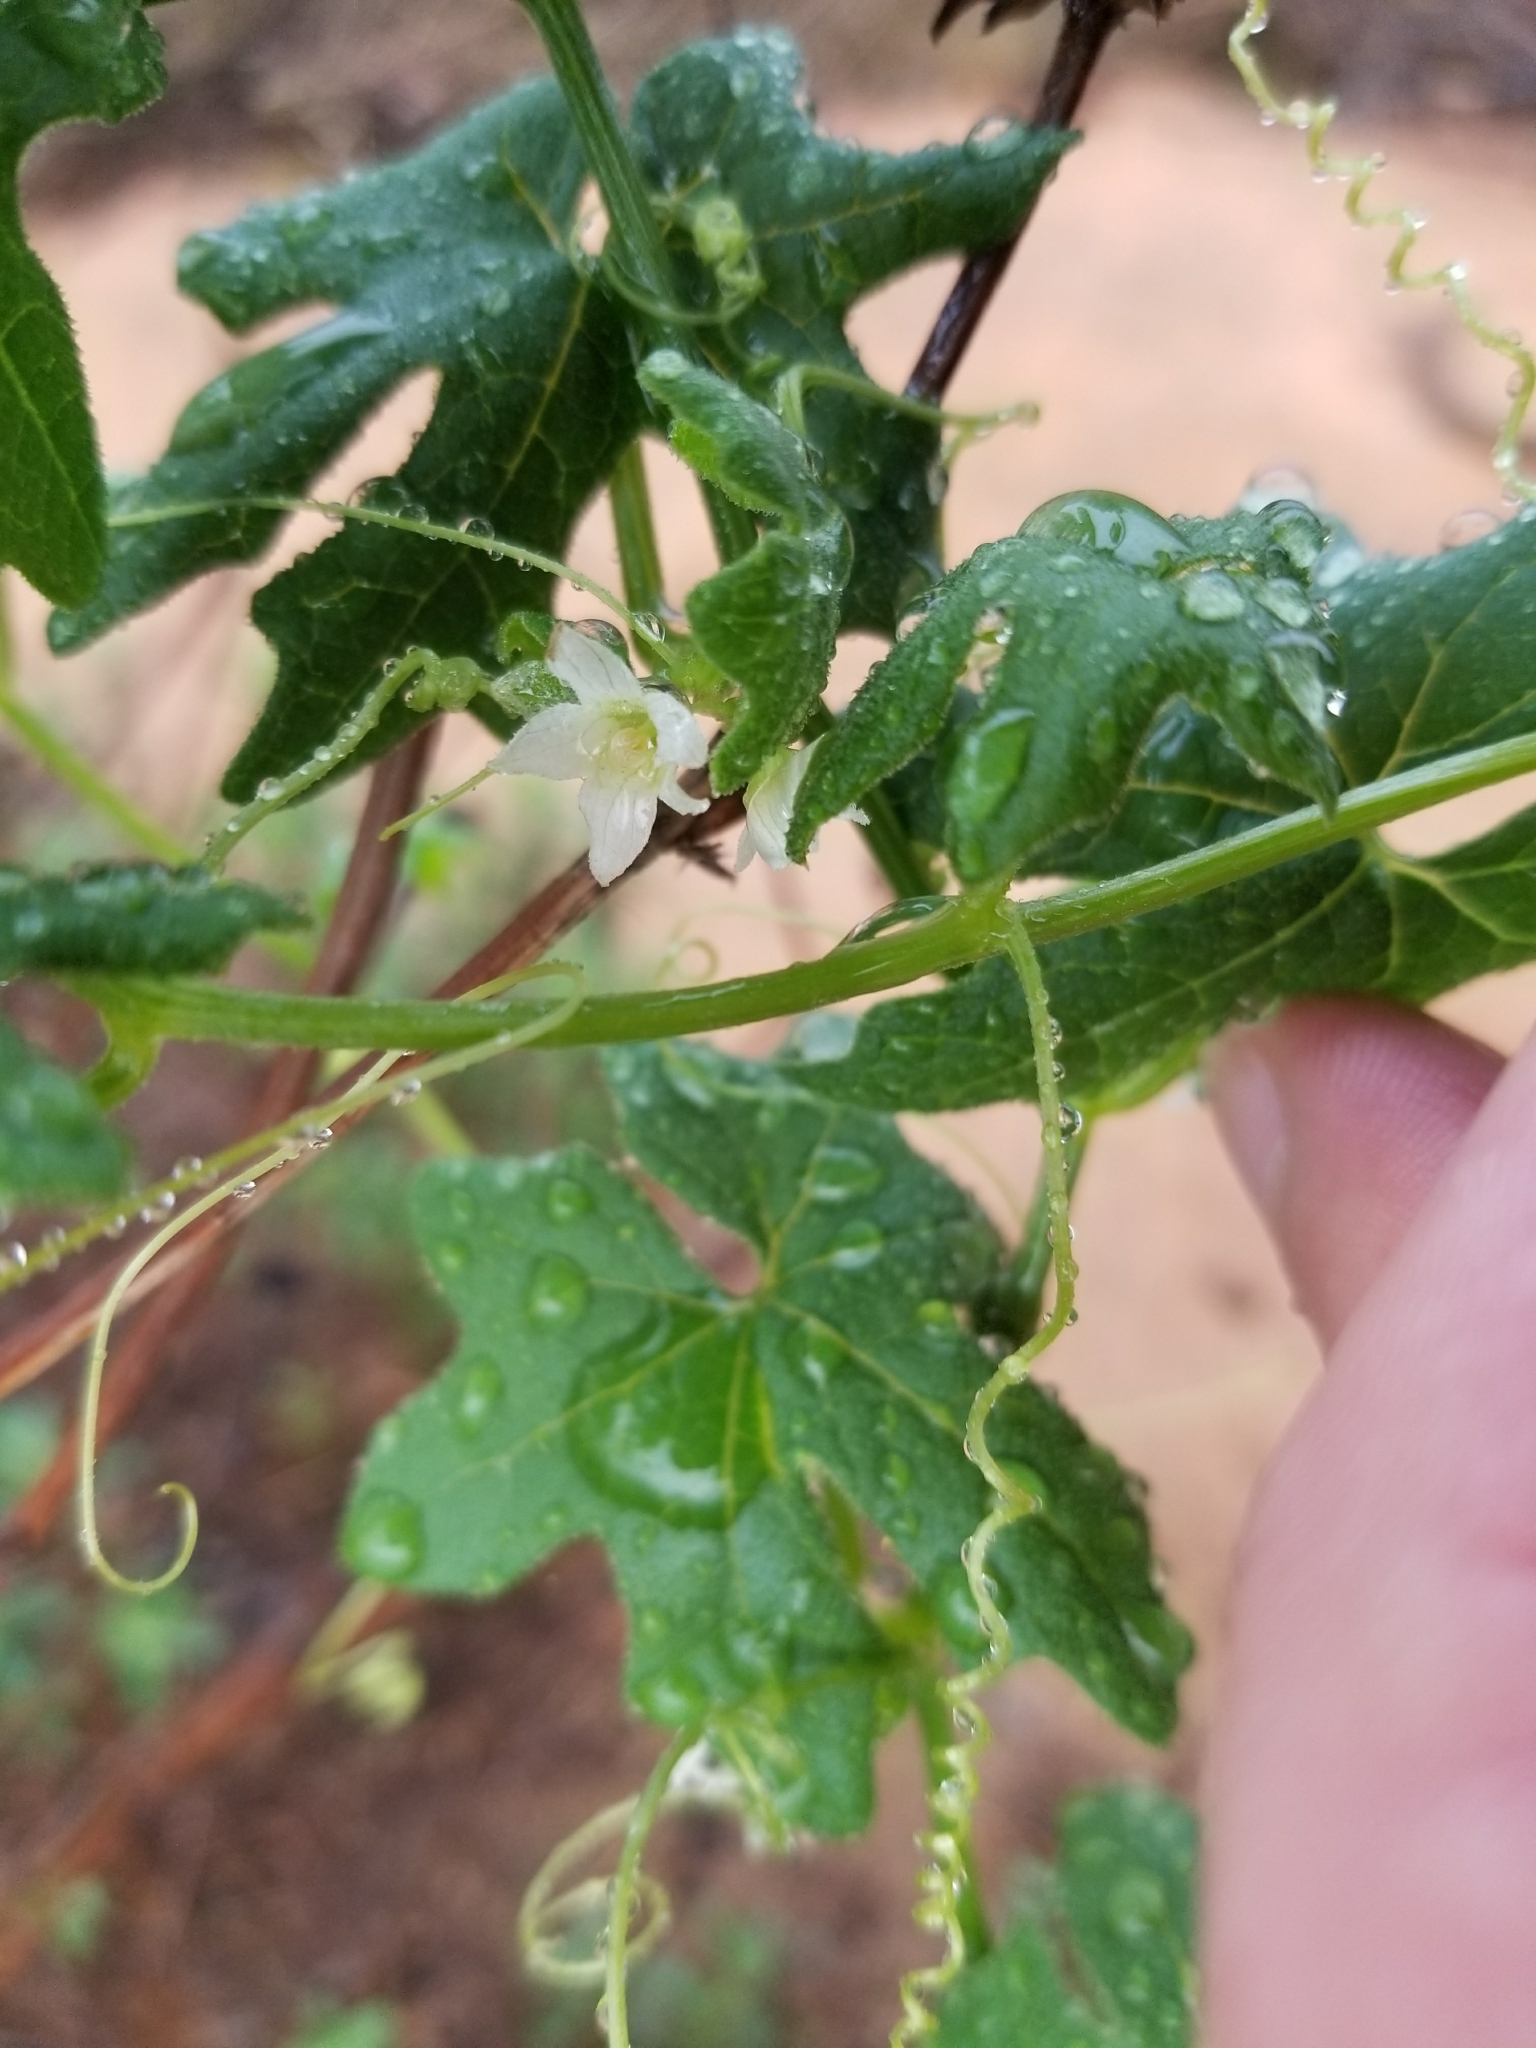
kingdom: Plantae
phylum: Tracheophyta
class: Magnoliopsida
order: Cucurbitales
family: Cucurbitaceae
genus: Marah
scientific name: Marah macrocarpa
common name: Cucamonga manroot
